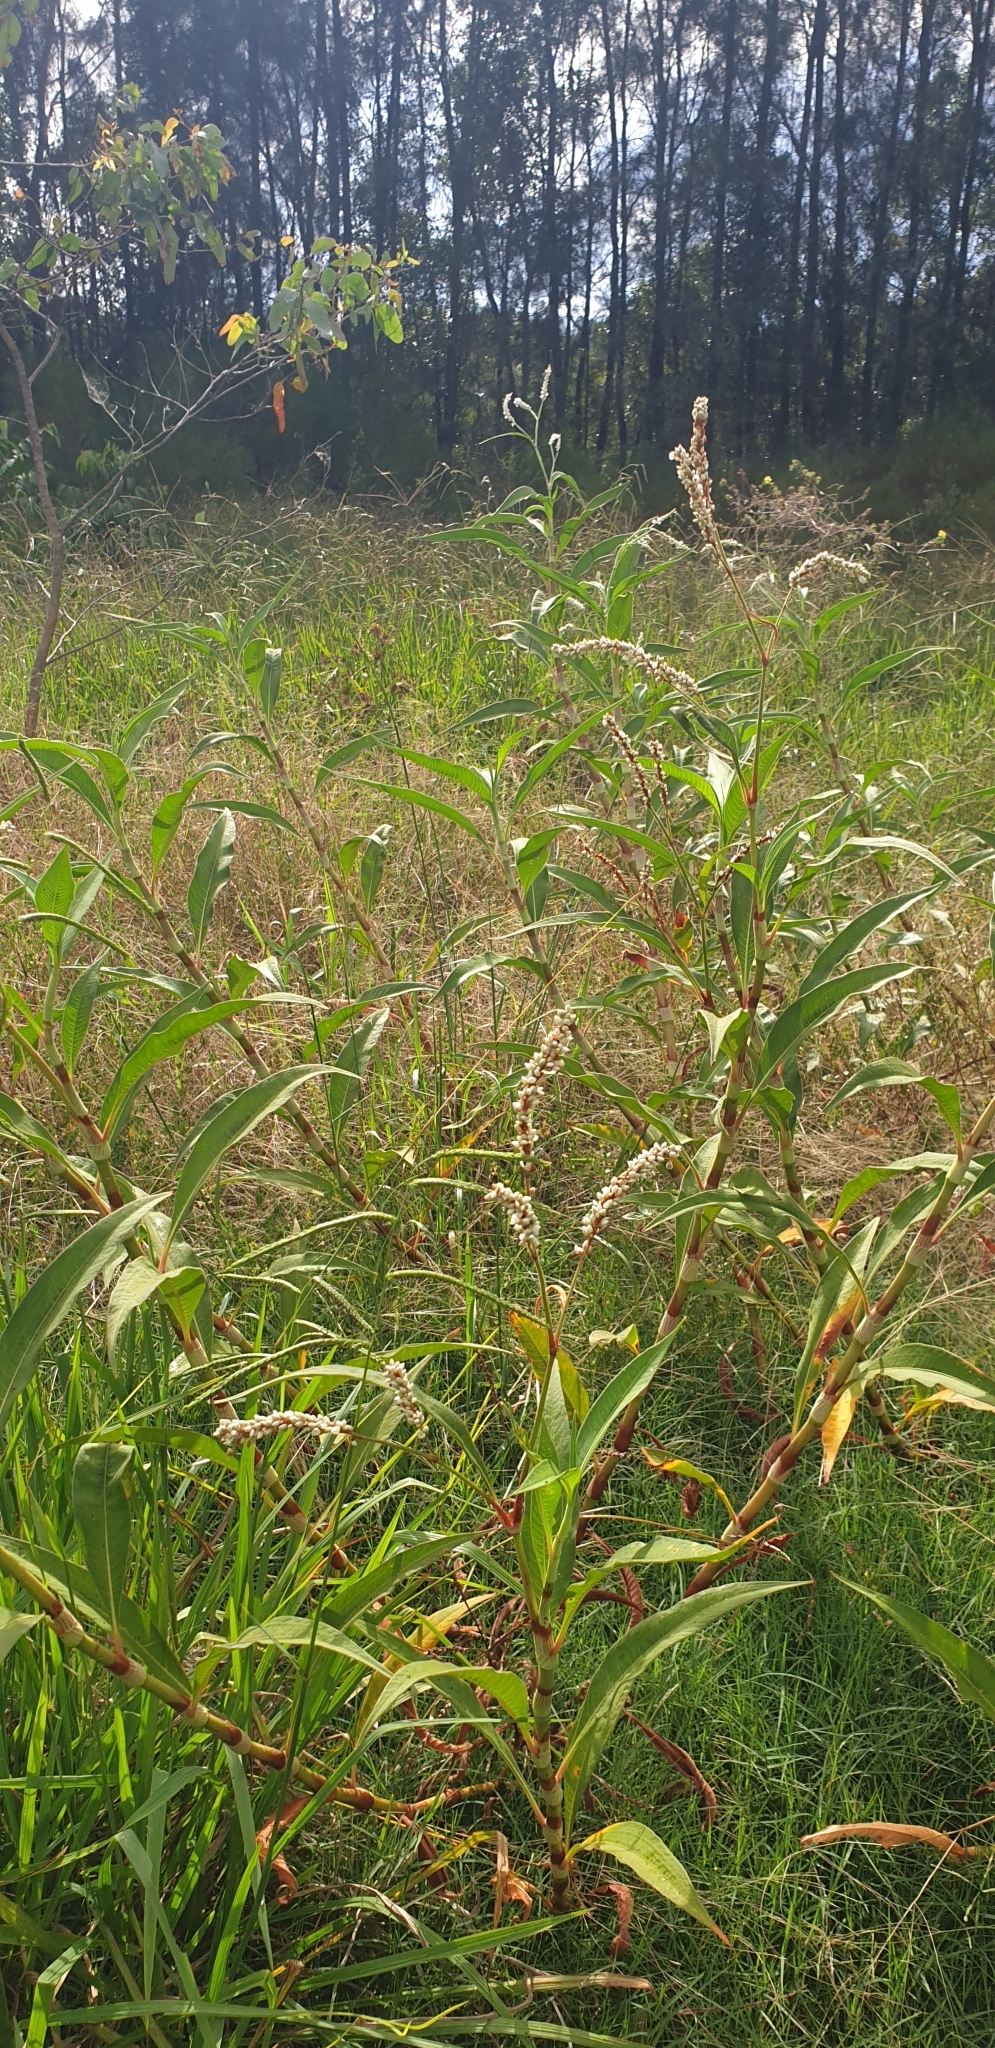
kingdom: Plantae
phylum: Tracheophyta
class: Magnoliopsida
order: Caryophyllales
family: Polygonaceae
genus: Persicaria
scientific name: Persicaria attenuata
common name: Hairy knotweed
